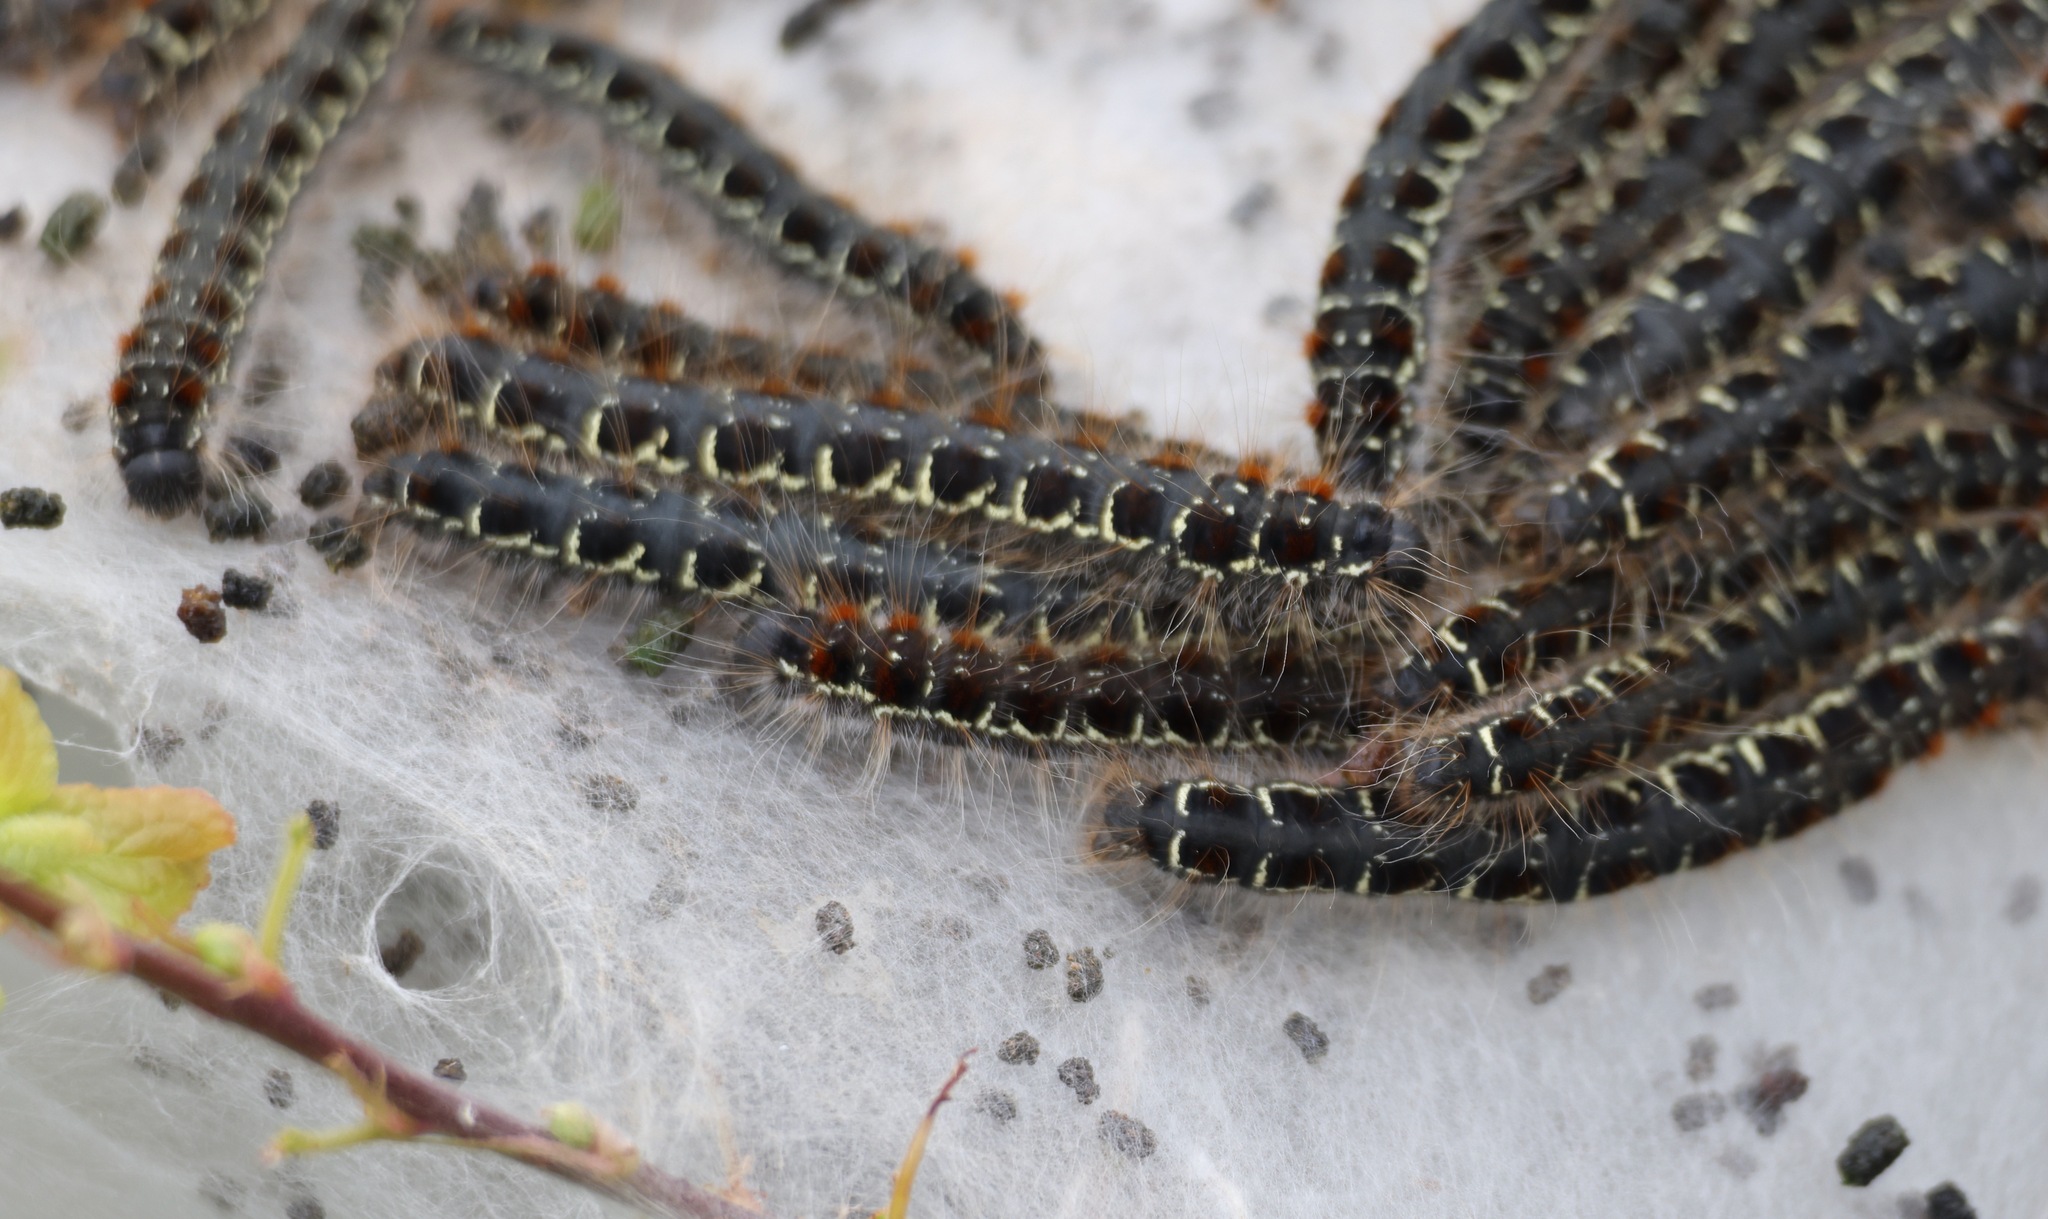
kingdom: Animalia
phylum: Arthropoda
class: Insecta
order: Lepidoptera
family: Lasiocampidae
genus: Eriogaster
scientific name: Eriogaster lanestris
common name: Small eggar
